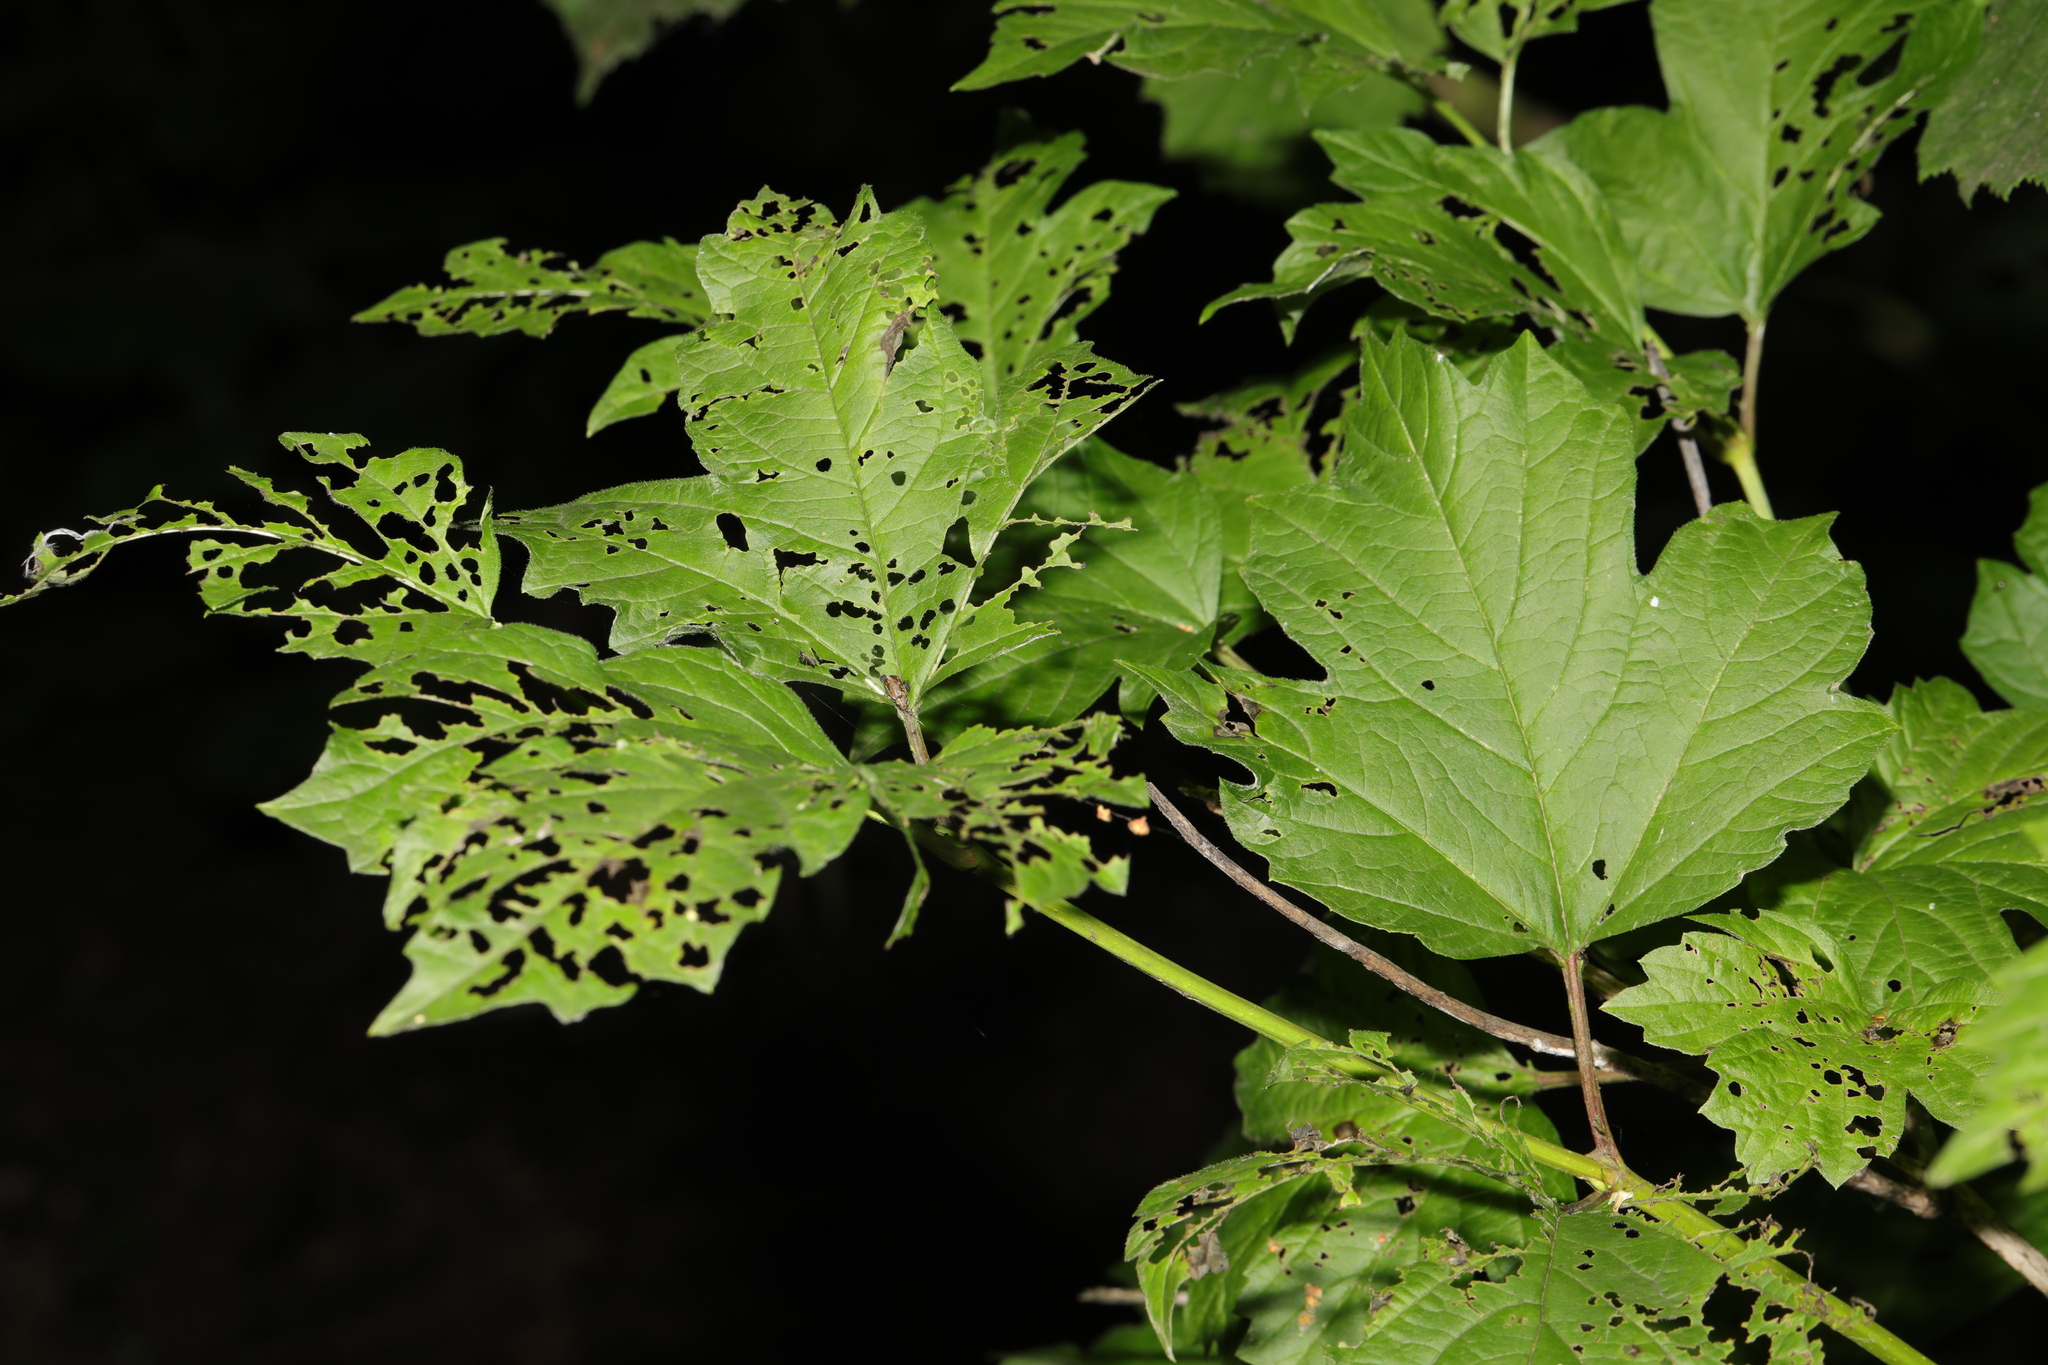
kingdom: Plantae
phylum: Tracheophyta
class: Magnoliopsida
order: Dipsacales
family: Viburnaceae
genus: Viburnum
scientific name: Viburnum opulus
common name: Guelder-rose
